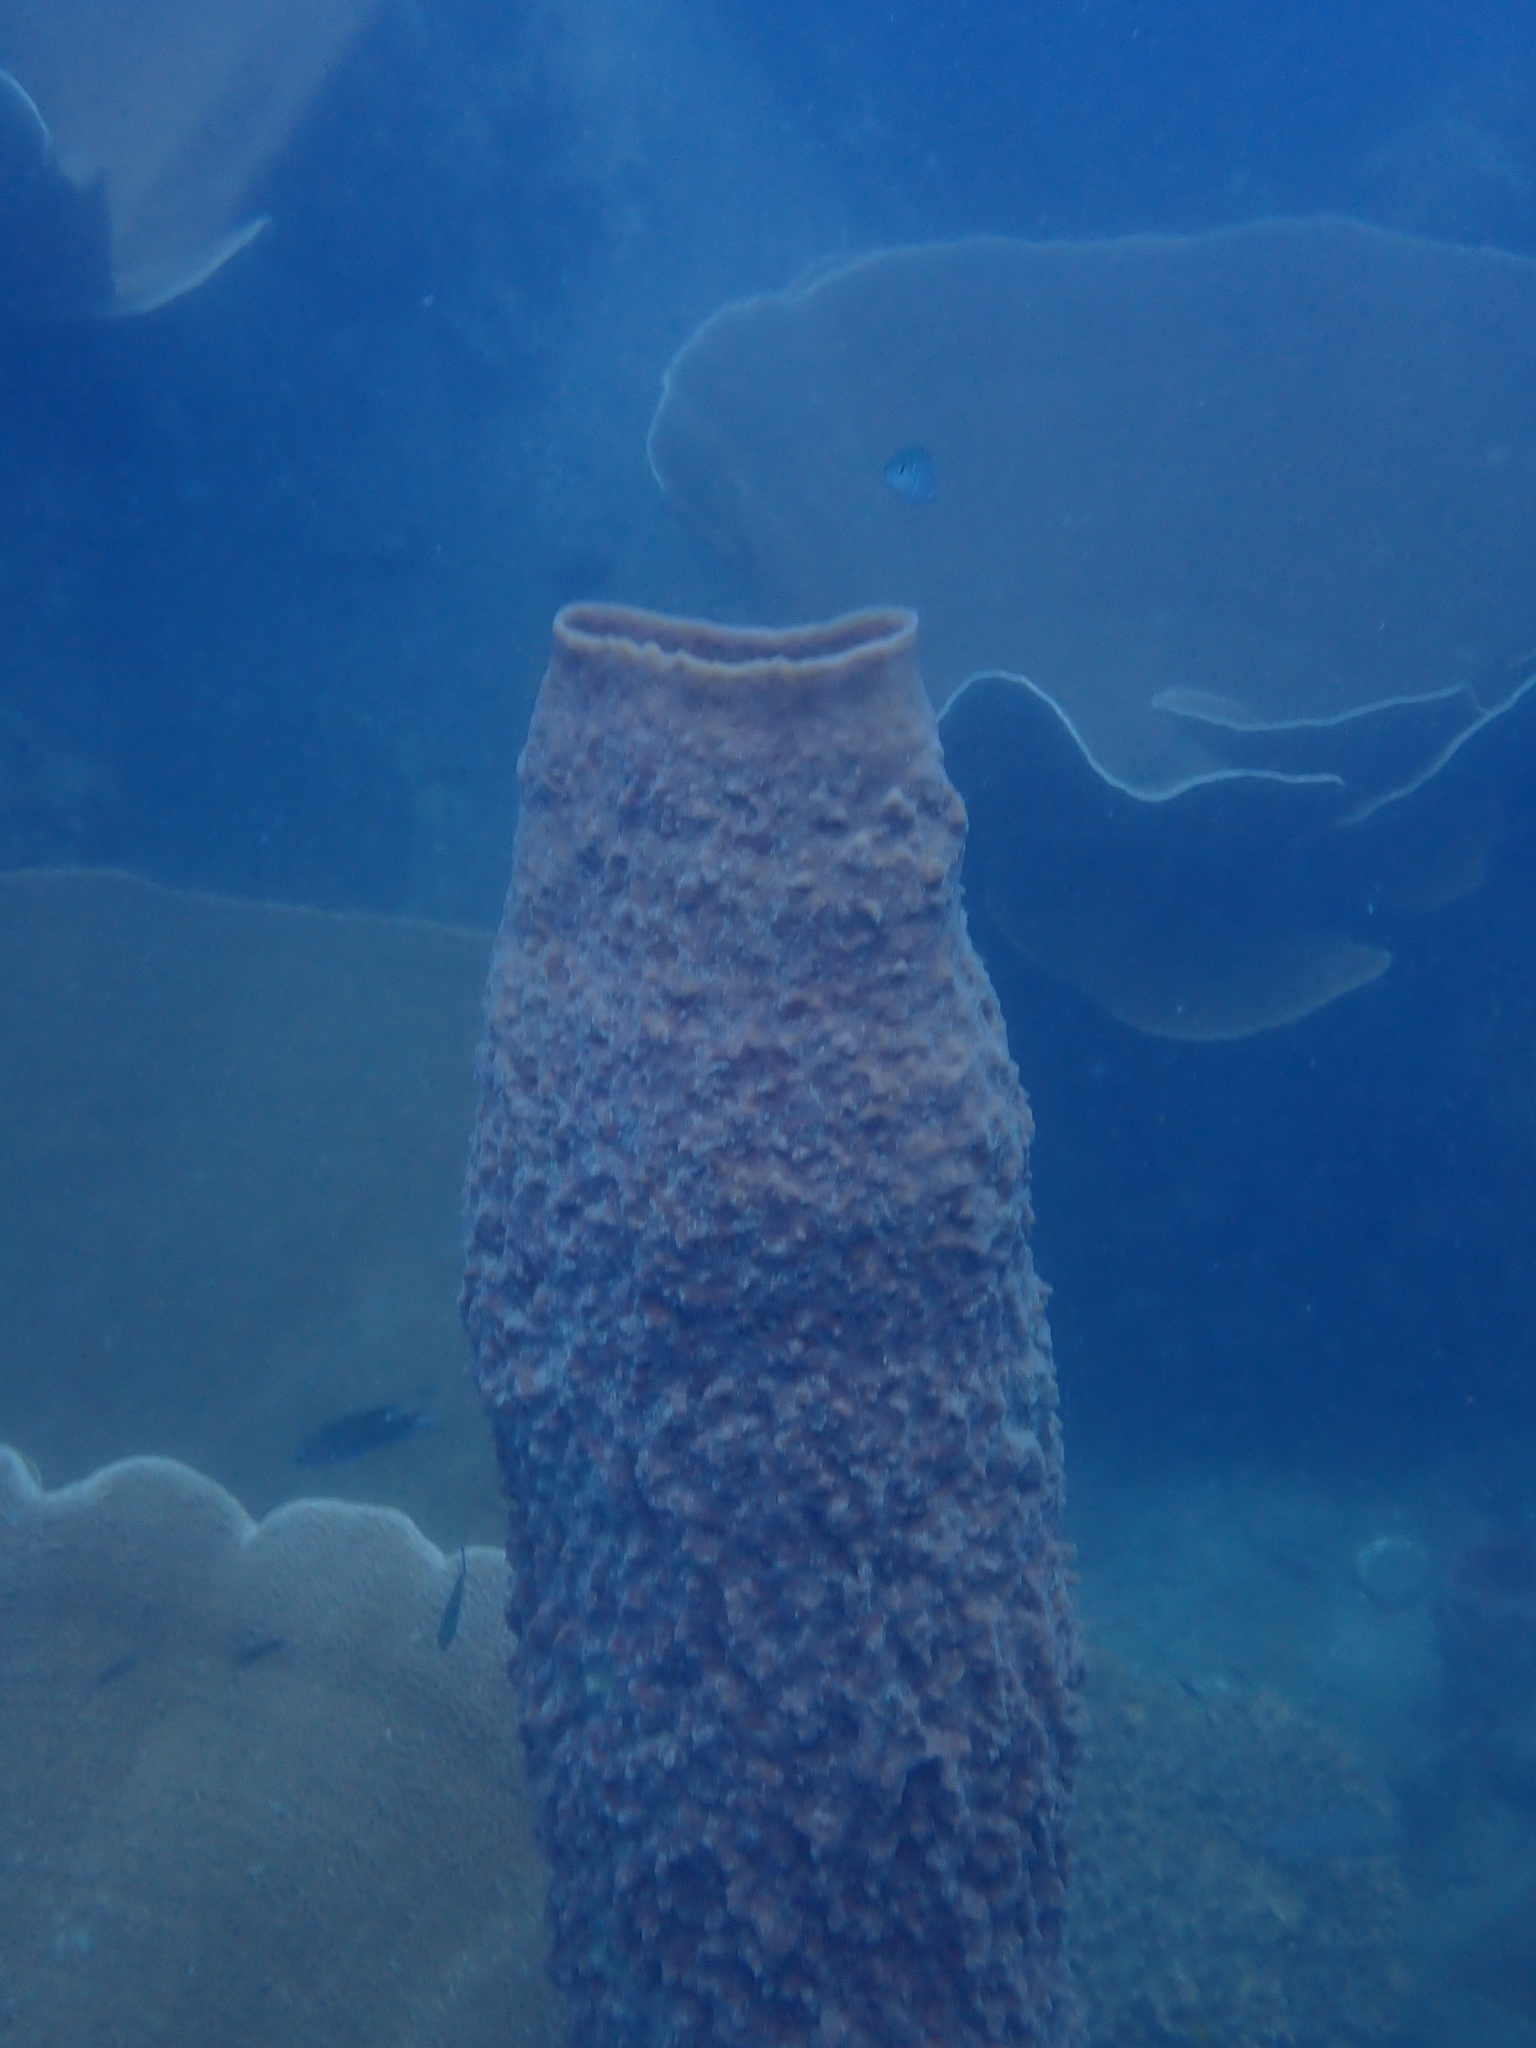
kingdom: Animalia
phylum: Porifera
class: Demospongiae
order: Haplosclerida
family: Petrosiidae
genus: Xestospongia
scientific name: Xestospongia testudinaria
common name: Barrel sponge
